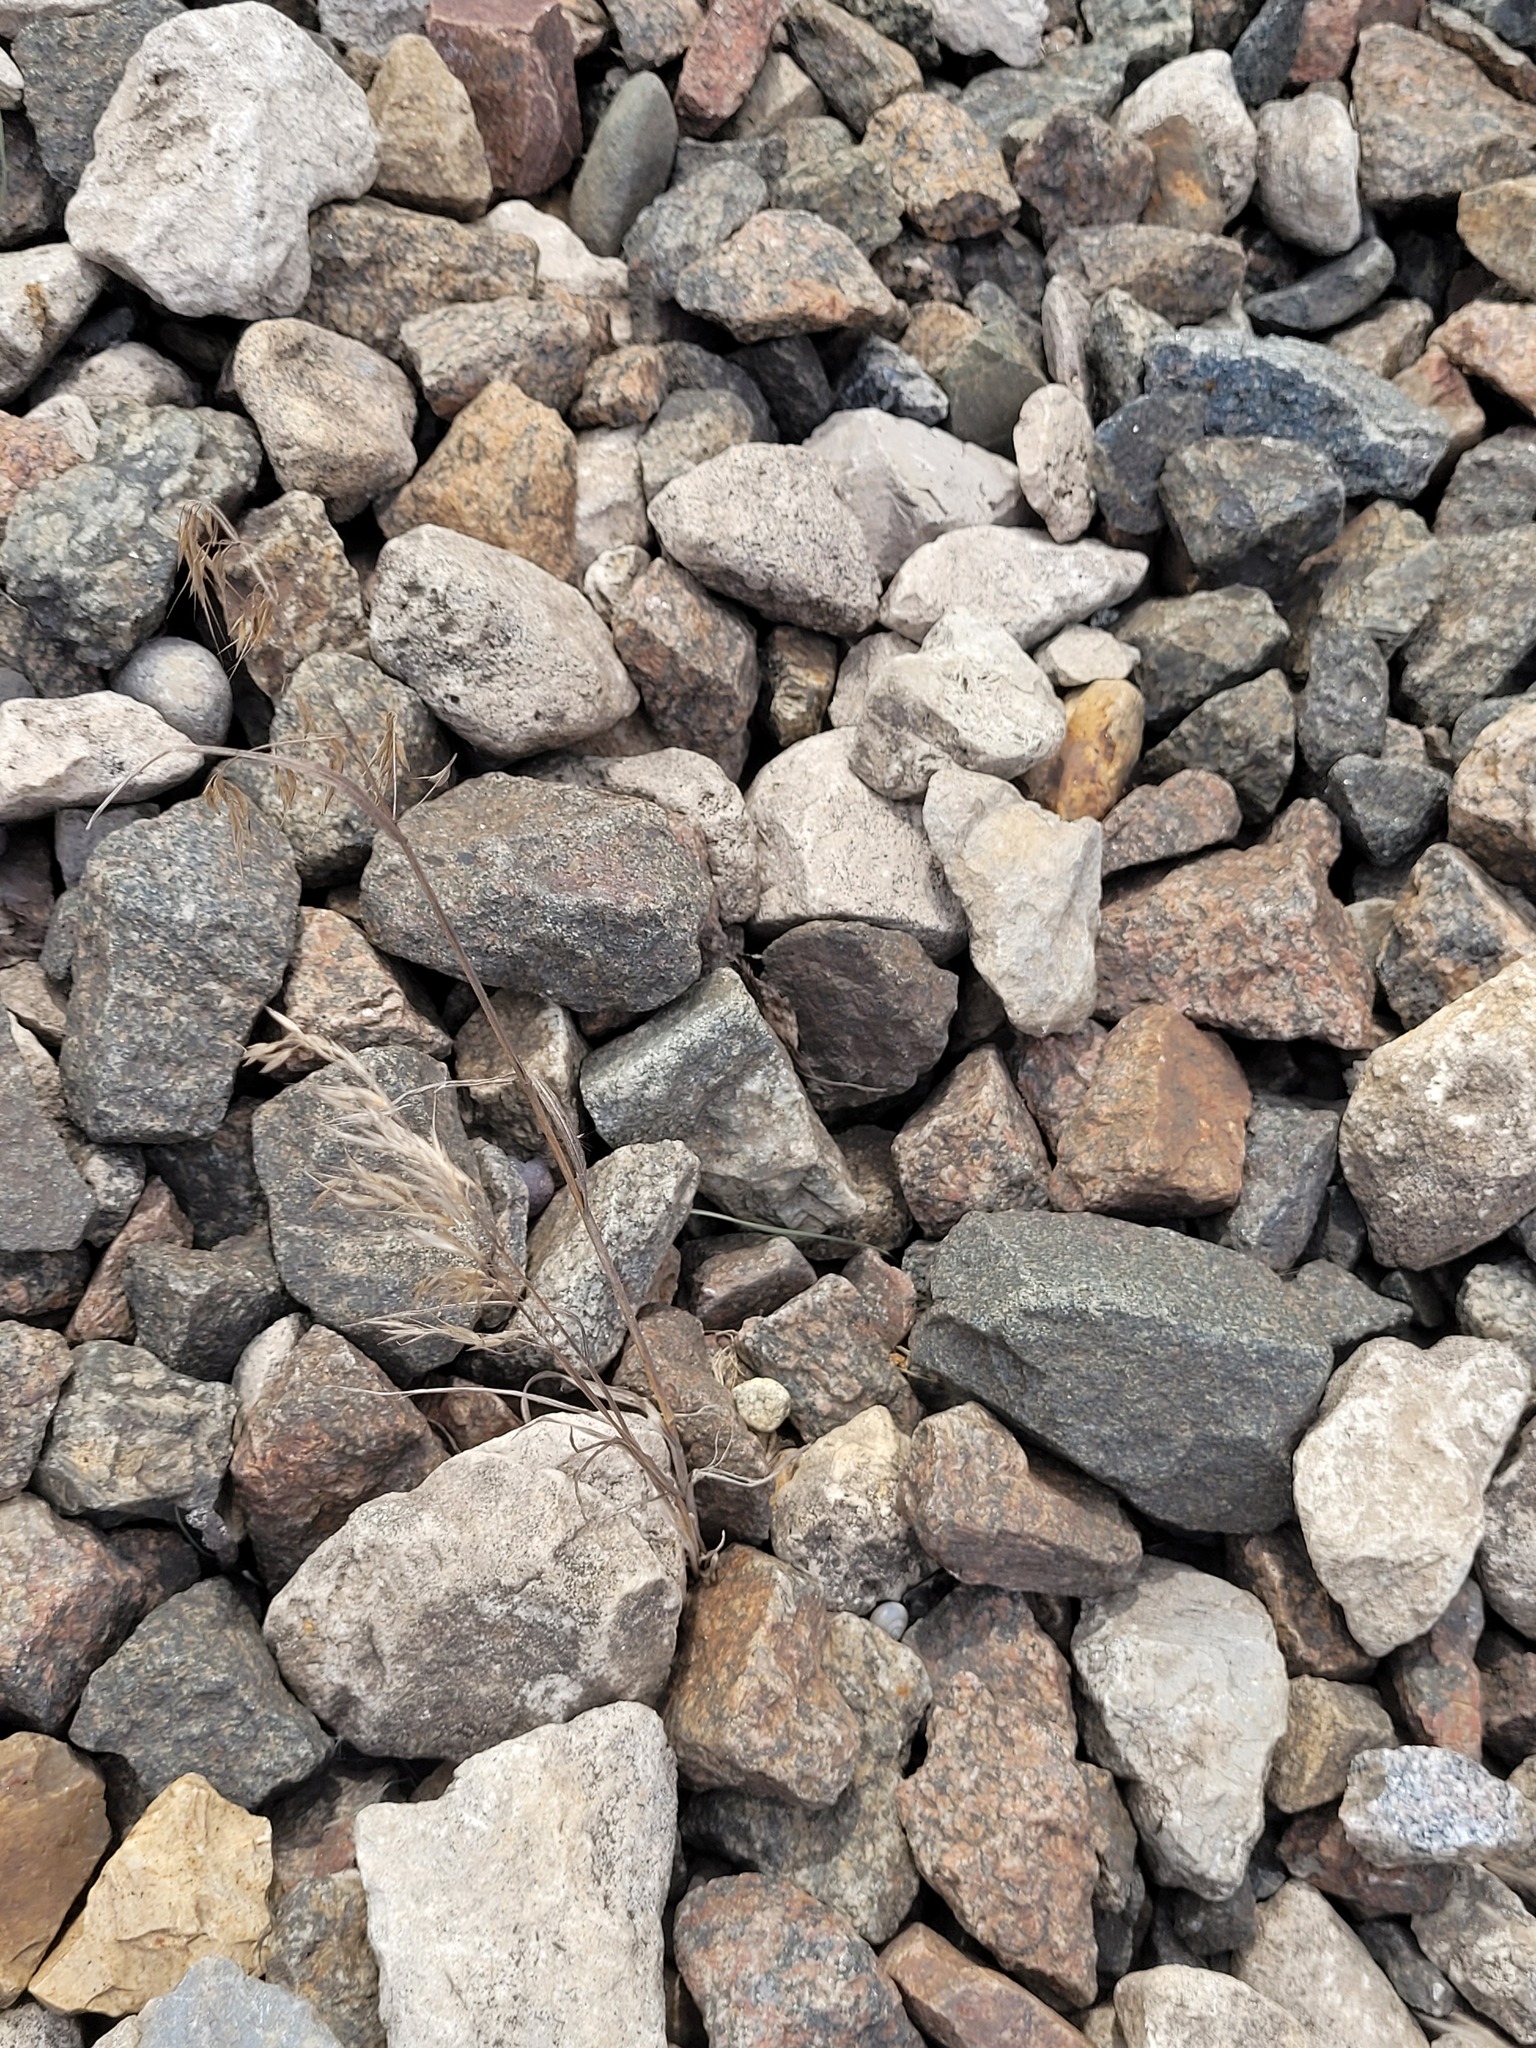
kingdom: Plantae
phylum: Tracheophyta
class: Liliopsida
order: Poales
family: Poaceae
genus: Bromus
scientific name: Bromus tectorum
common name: Cheatgrass
